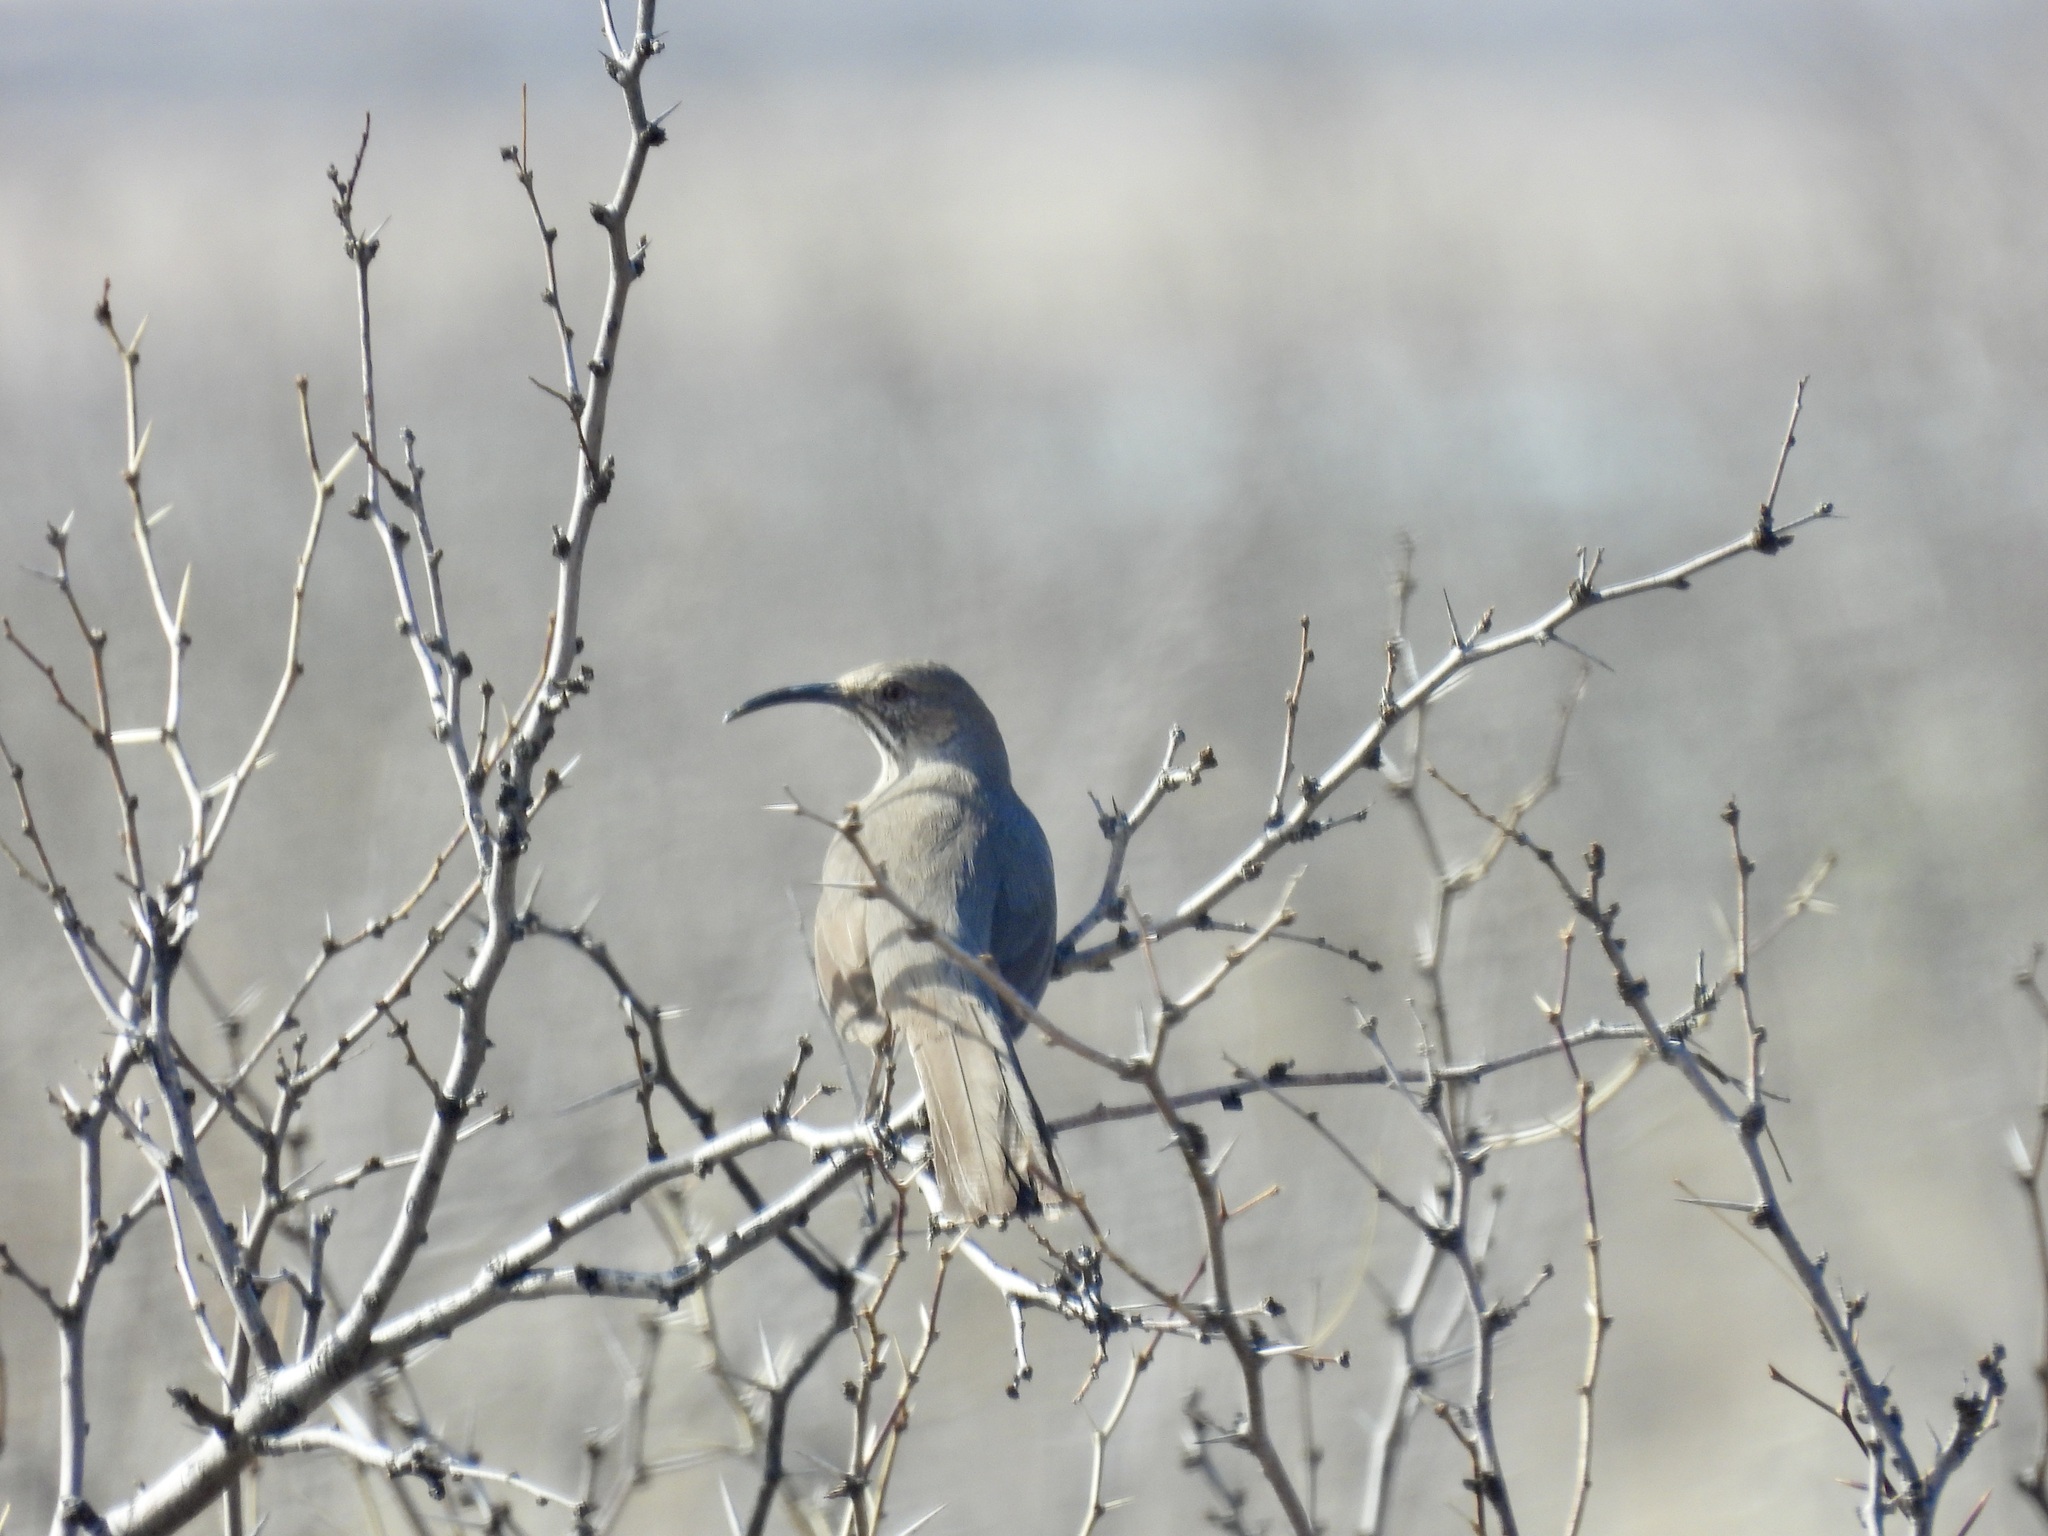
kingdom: Animalia
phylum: Chordata
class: Aves
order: Passeriformes
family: Mimidae
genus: Toxostoma
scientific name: Toxostoma crissale
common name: Crissal thrasher
